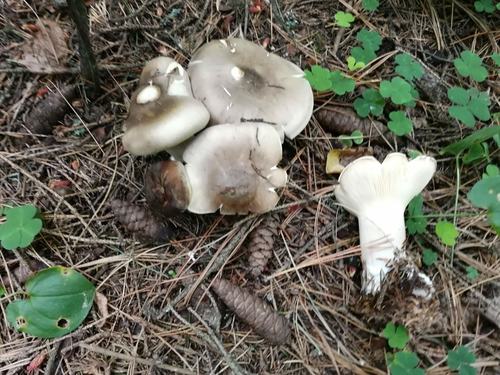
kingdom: Fungi
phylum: Basidiomycota
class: Agaricomycetes
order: Agaricales
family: Tricholomataceae
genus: Clitocybe
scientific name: Clitocybe nebularis
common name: Clouded agaric
